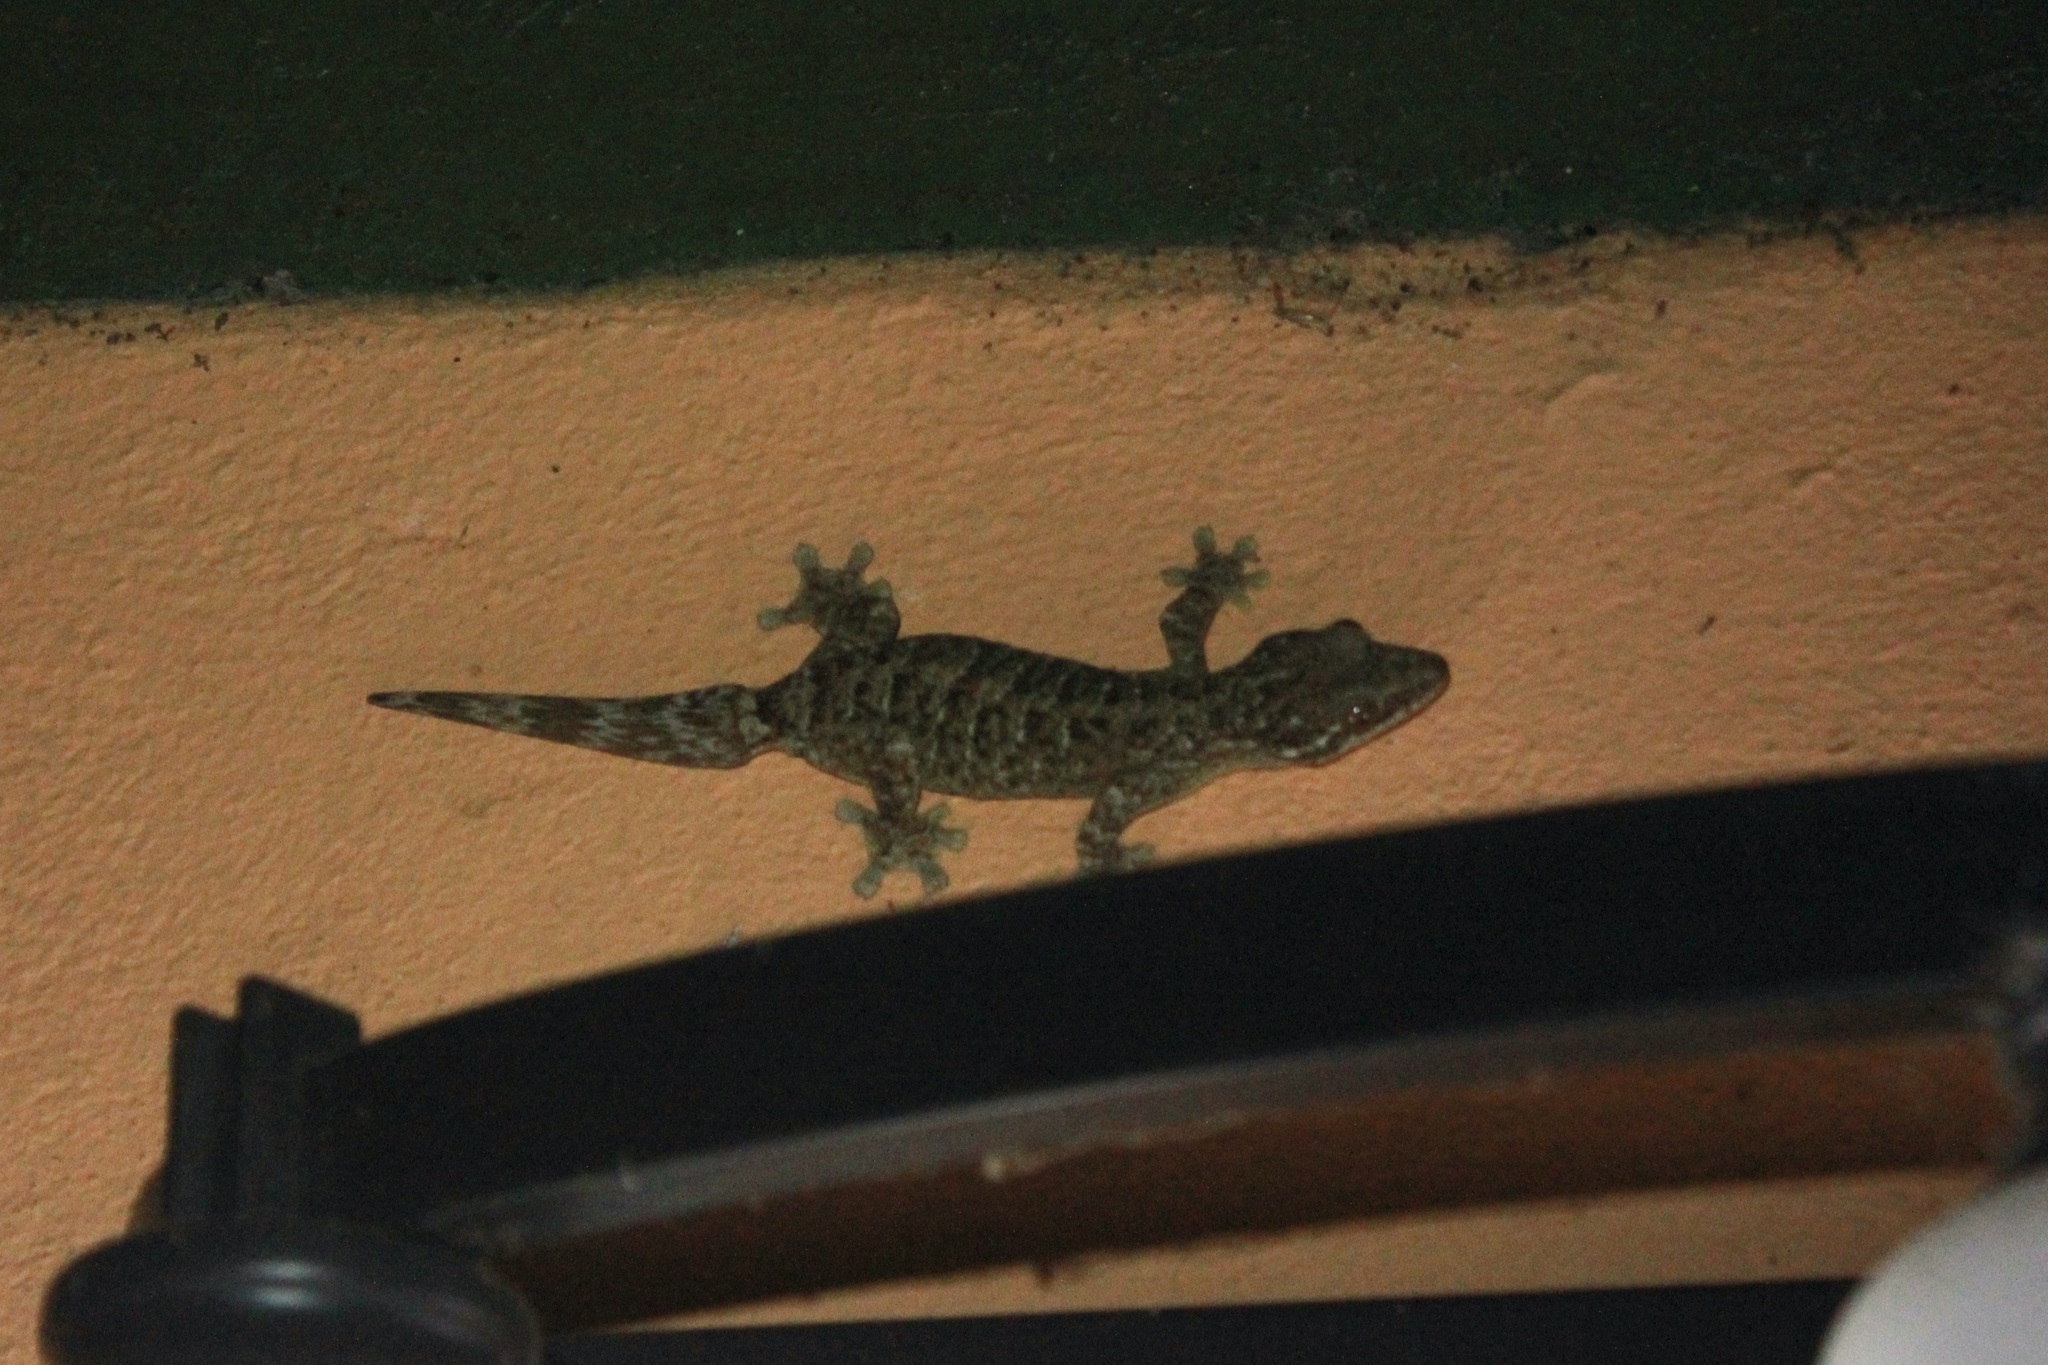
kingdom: Animalia
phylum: Chordata
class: Squamata
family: Phyllodactylidae
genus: Thecadactylus
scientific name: Thecadactylus rapicauda
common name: Turnip-tailed gecko
